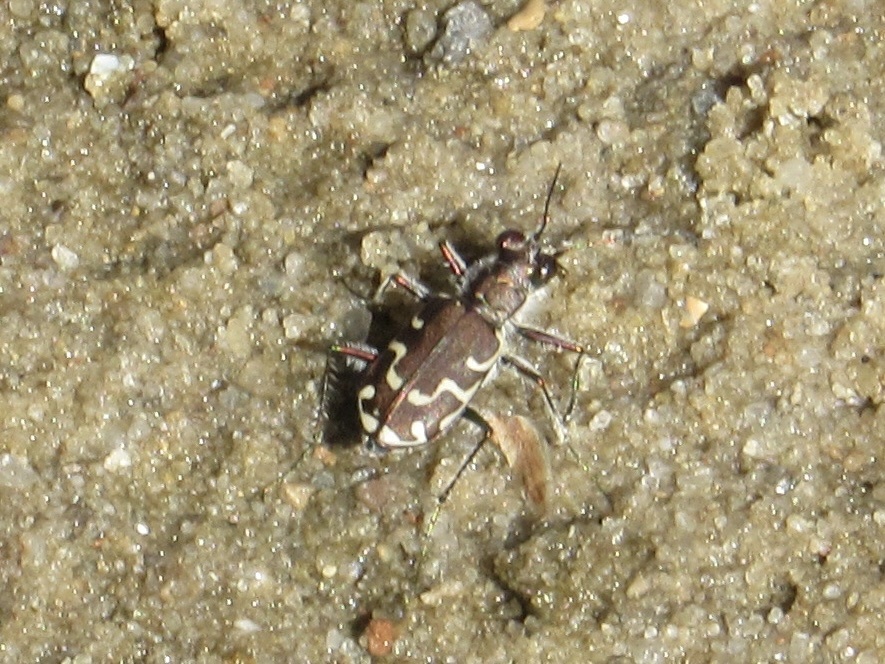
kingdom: Animalia
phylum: Arthropoda
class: Insecta
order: Coleoptera
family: Carabidae
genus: Cicindela
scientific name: Cicindela repanda
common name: Bronzed tiger beetle
